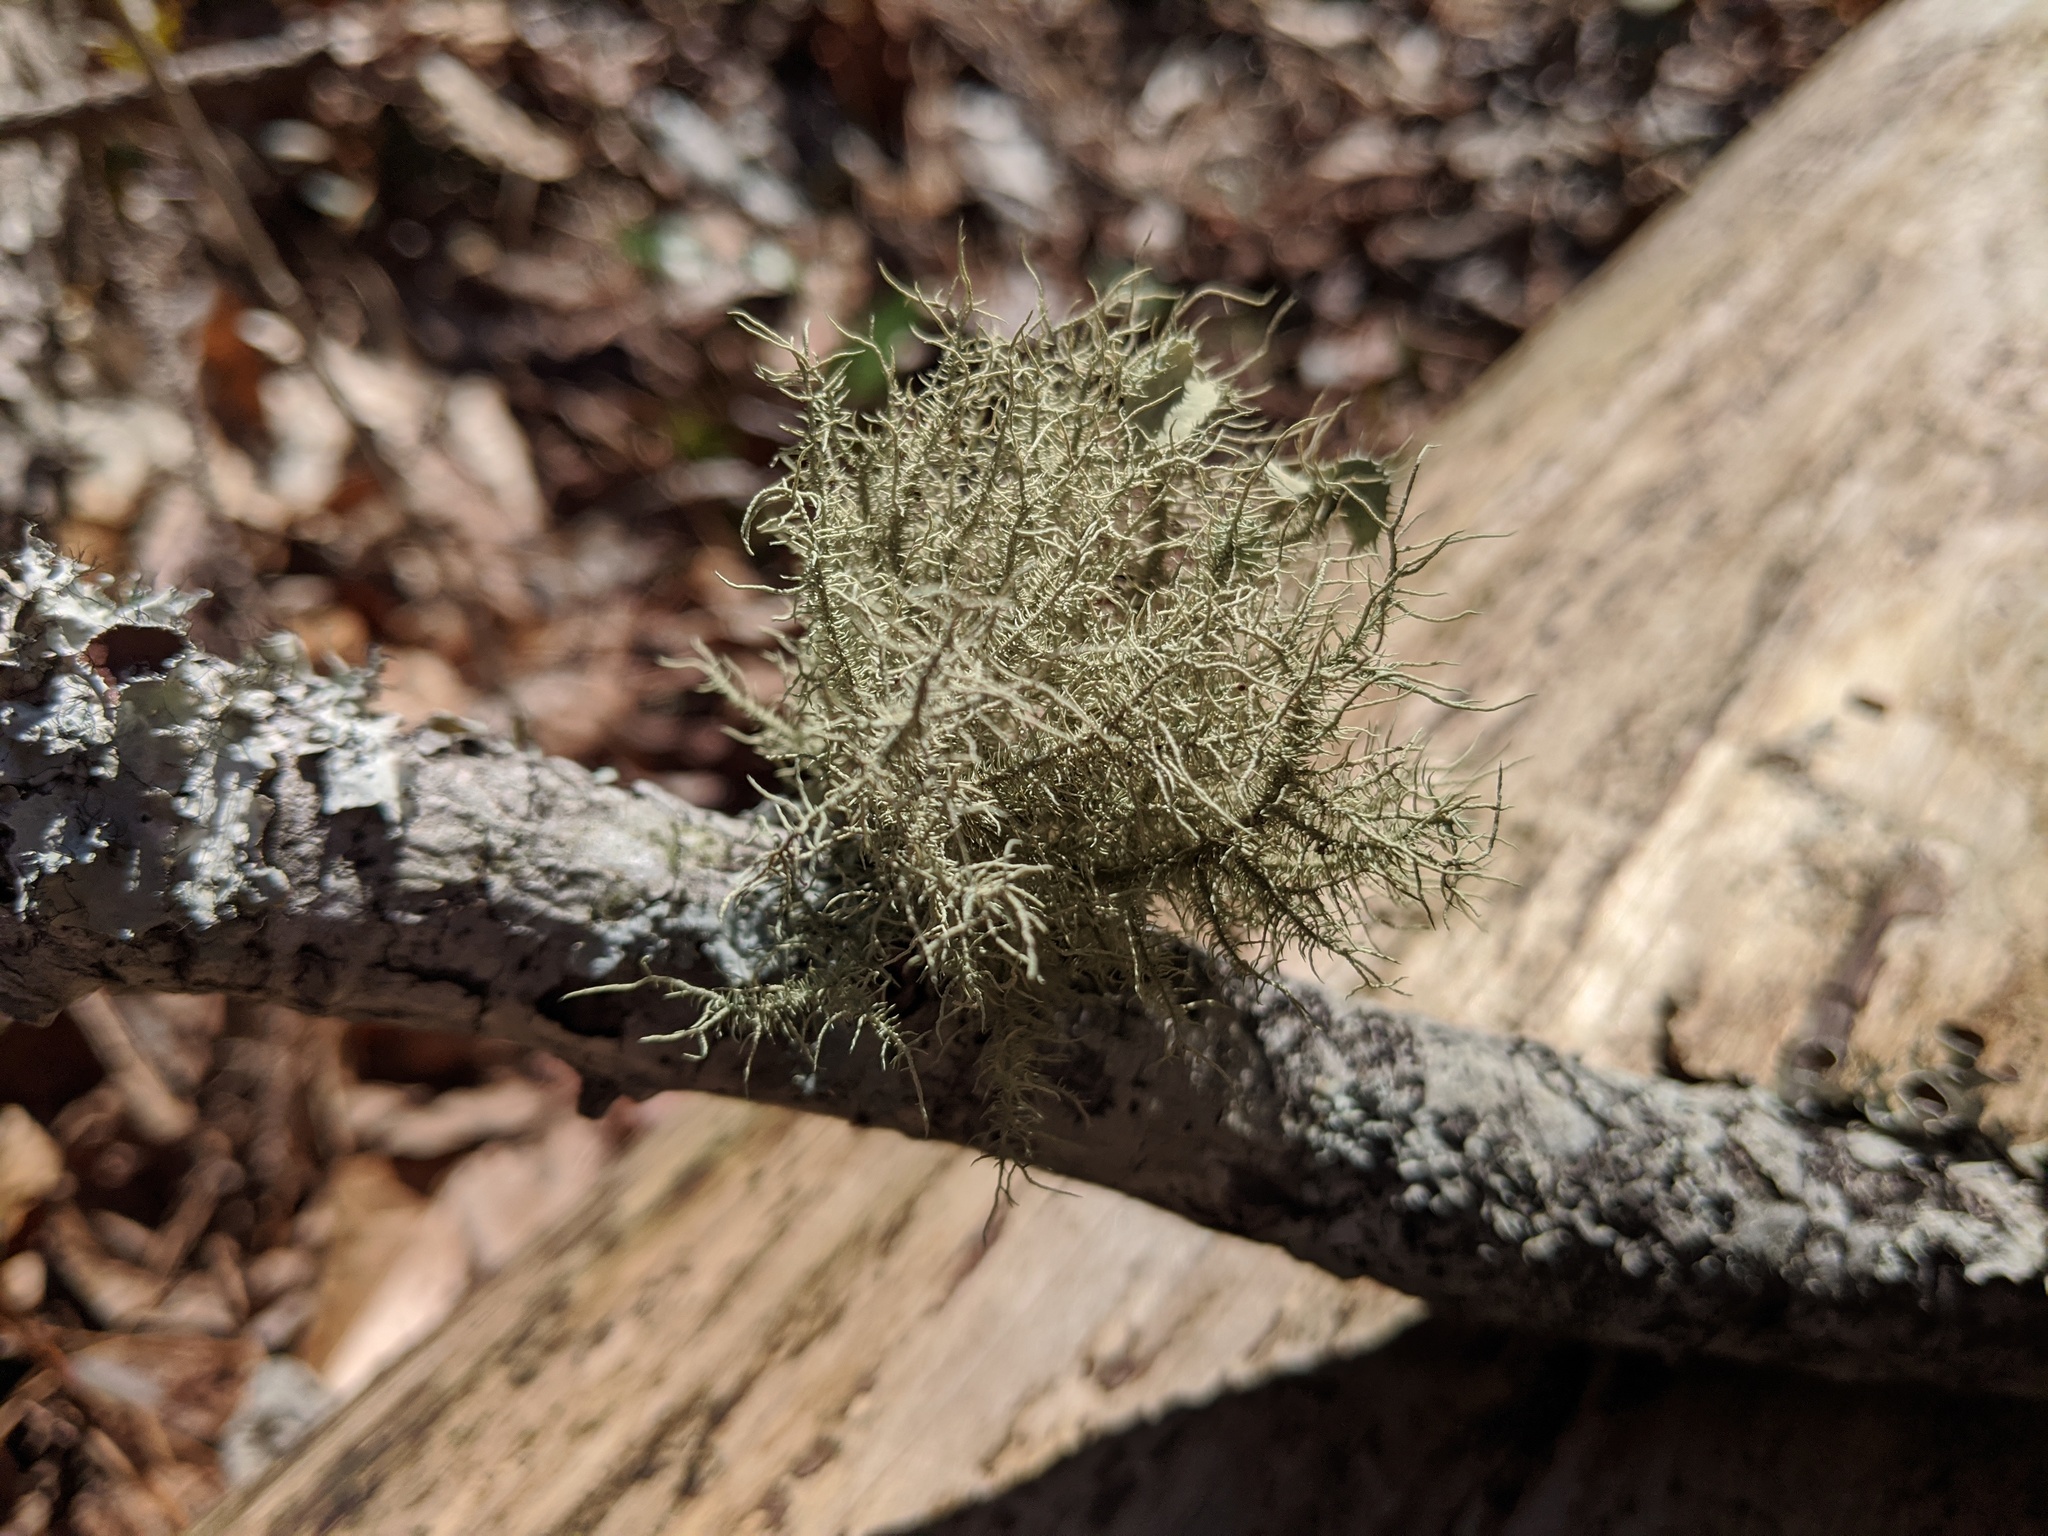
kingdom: Fungi
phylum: Ascomycota
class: Lecanoromycetes
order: Lecanorales
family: Parmeliaceae
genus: Usnea
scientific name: Usnea strigosa
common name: Bushy beard lichen
